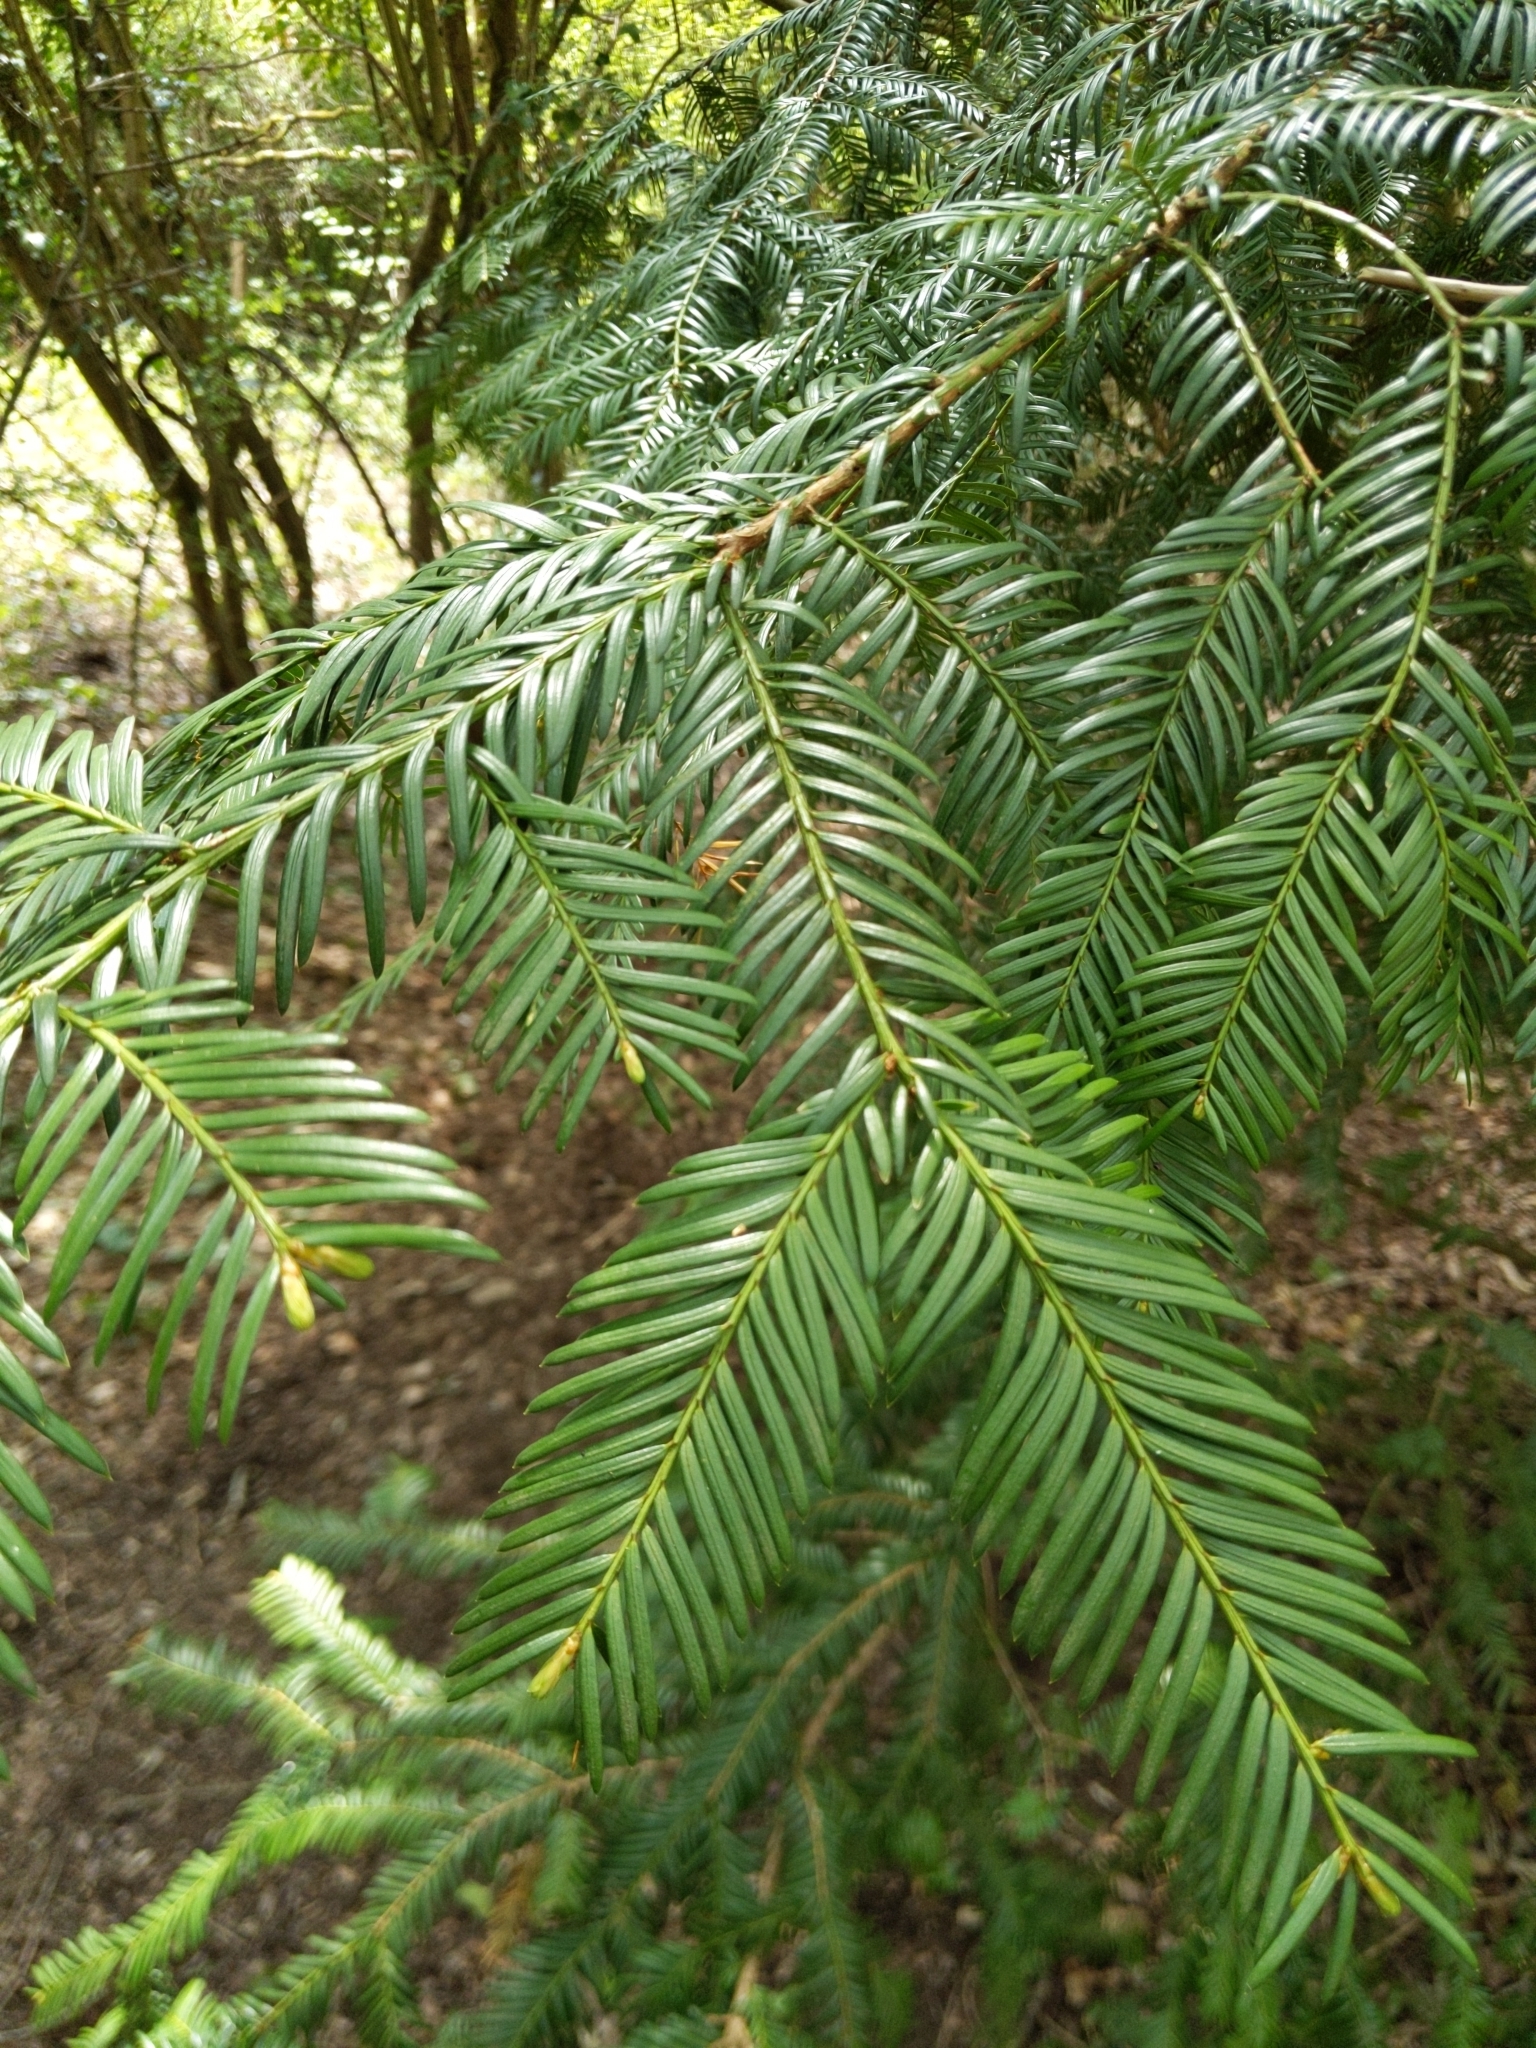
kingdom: Plantae
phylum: Tracheophyta
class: Pinopsida
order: Pinales
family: Taxaceae
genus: Taxus
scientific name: Taxus baccata
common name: Yew
